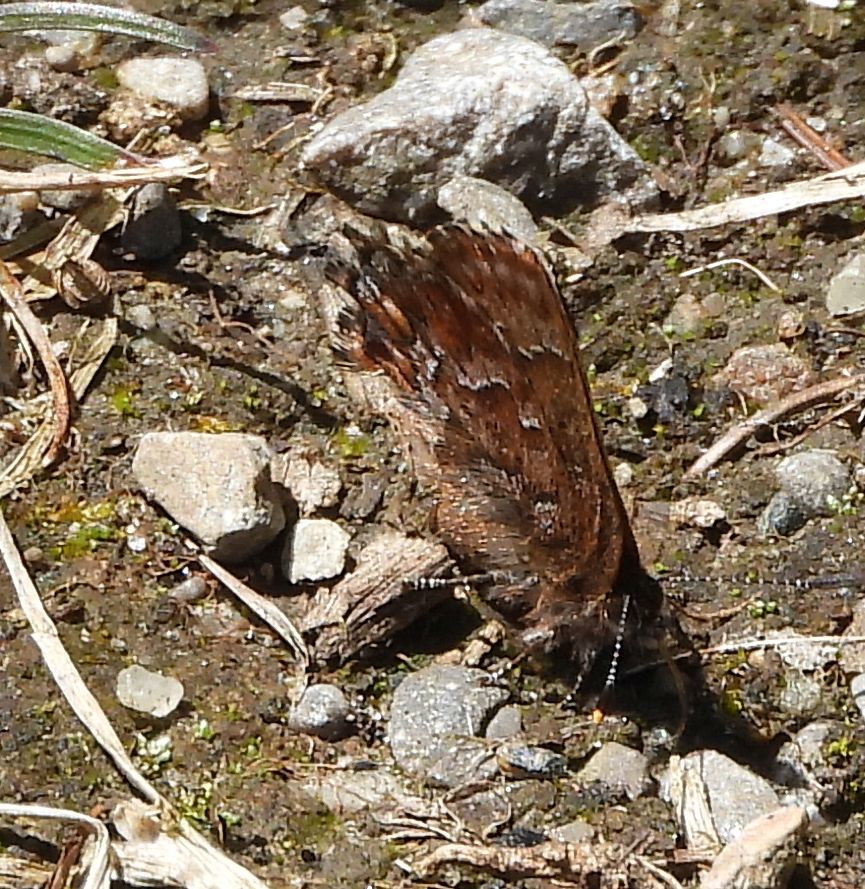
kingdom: Animalia
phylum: Arthropoda
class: Insecta
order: Lepidoptera
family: Lycaenidae
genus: Incisalia
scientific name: Incisalia niphon
